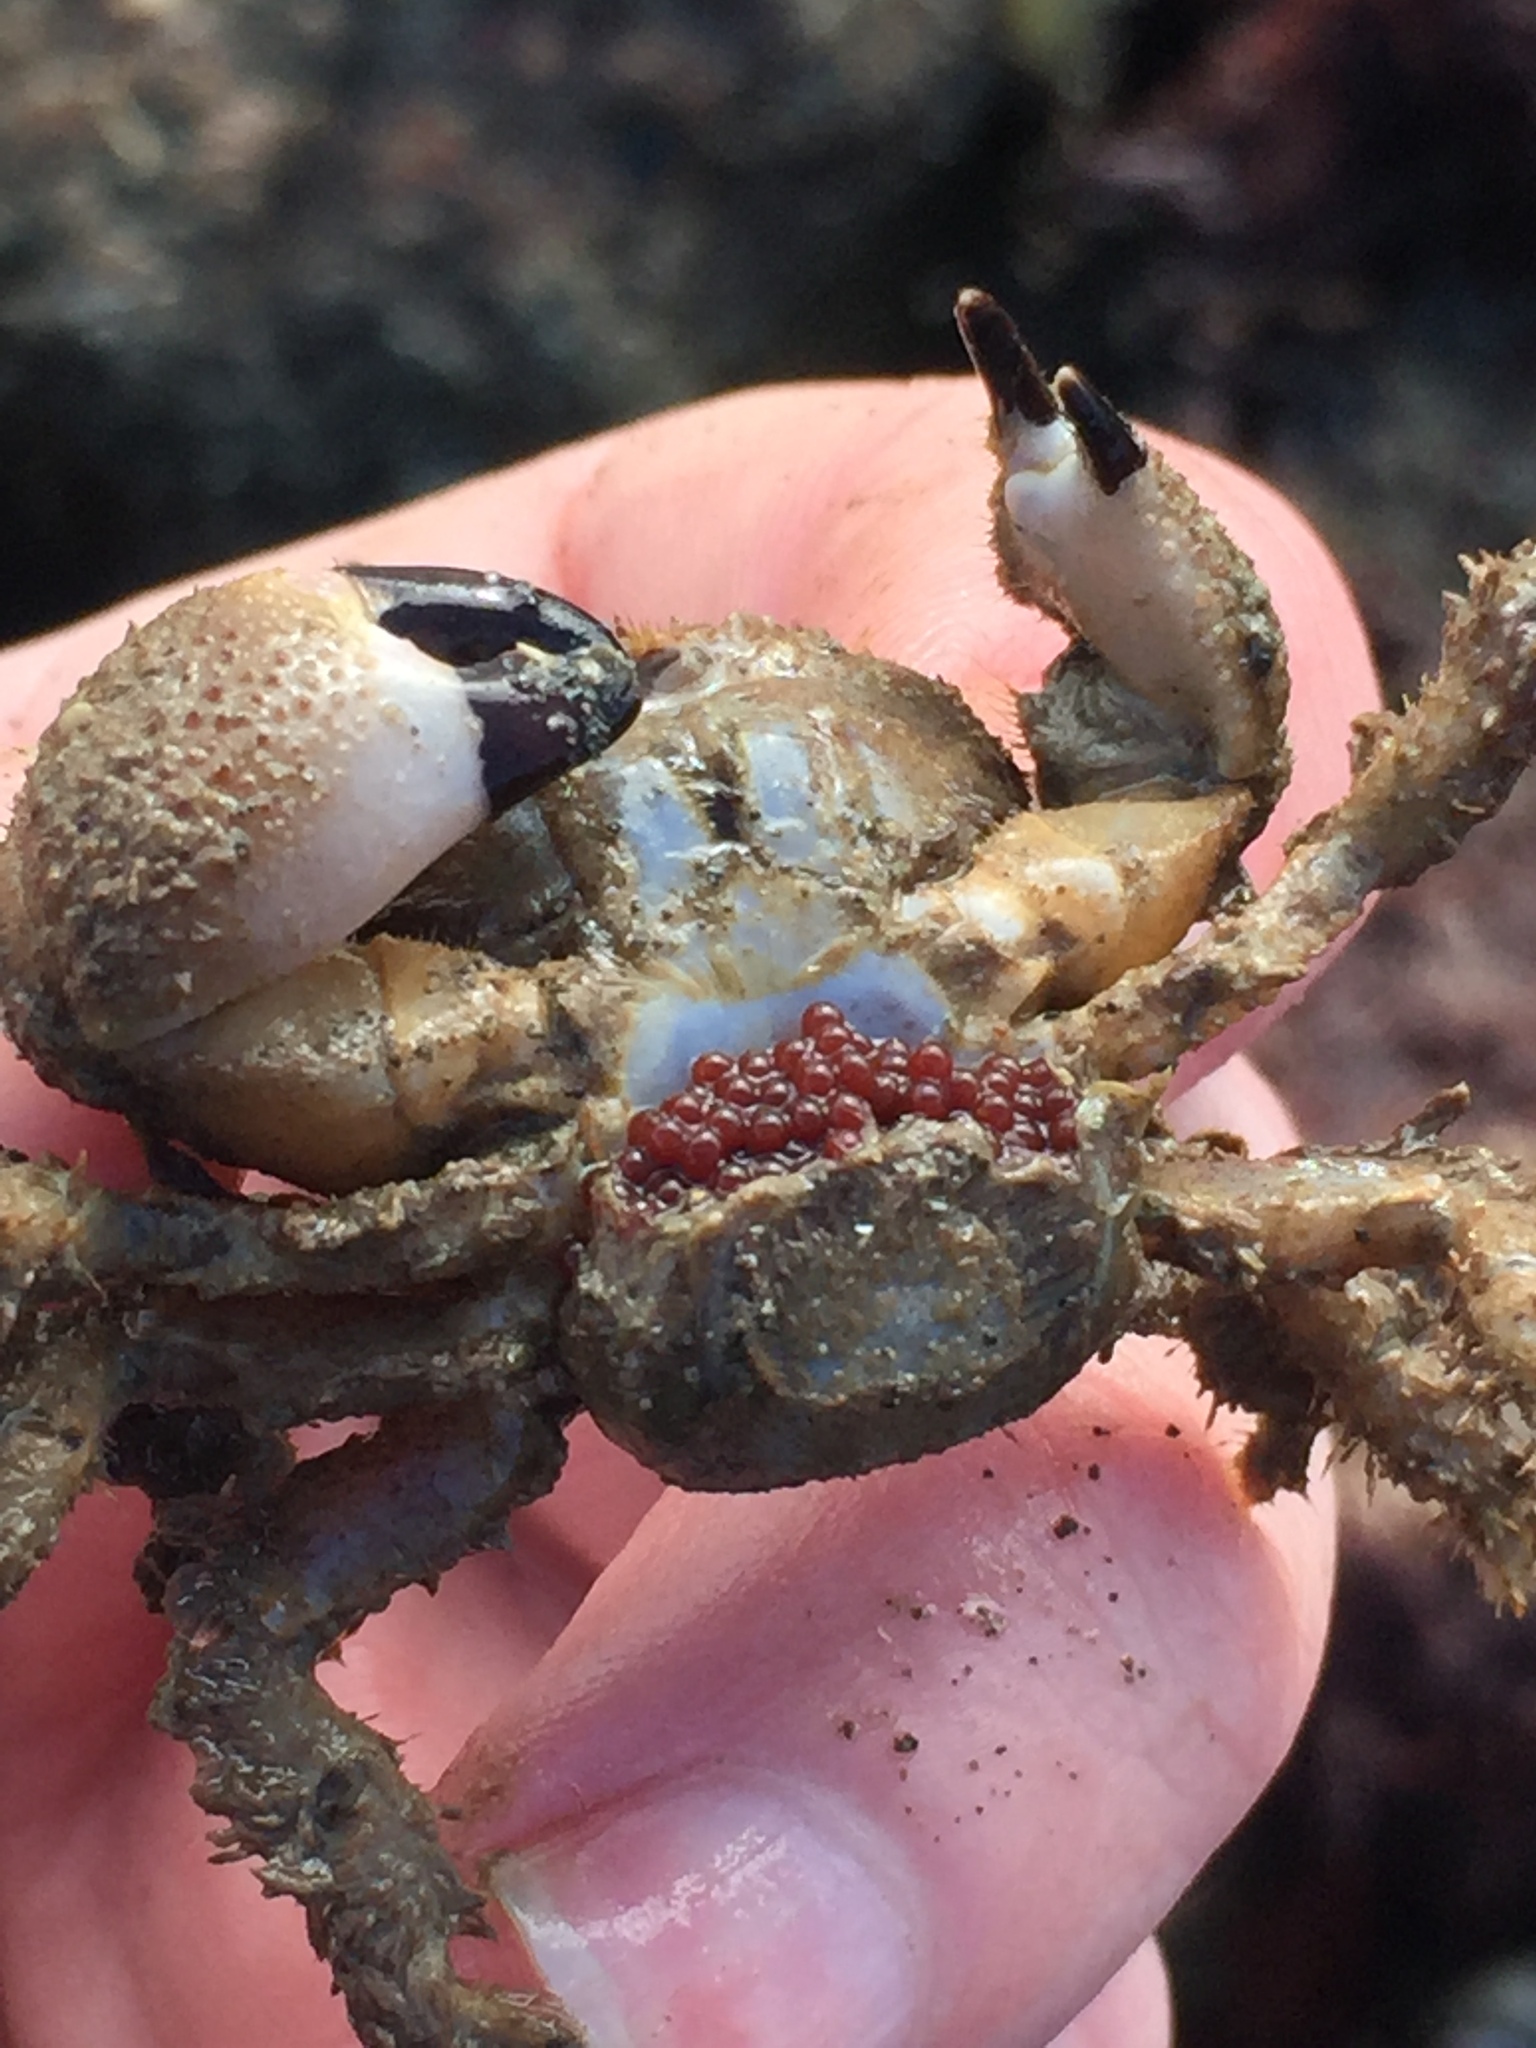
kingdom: Animalia
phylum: Arthropoda
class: Malacostraca
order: Decapoda
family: Pilumnidae
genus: Pilumnus
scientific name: Pilumnus lumpinus
